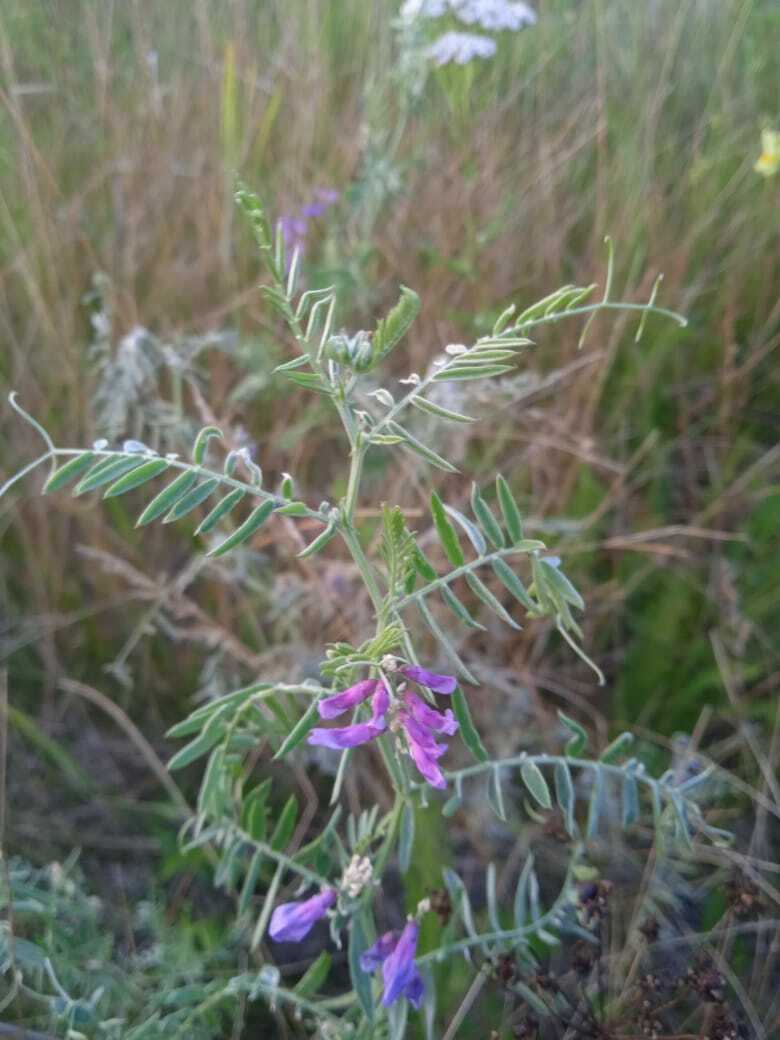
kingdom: Plantae
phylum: Tracheophyta
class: Magnoliopsida
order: Fabales
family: Fabaceae
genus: Vicia
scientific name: Vicia cracca
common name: Bird vetch
